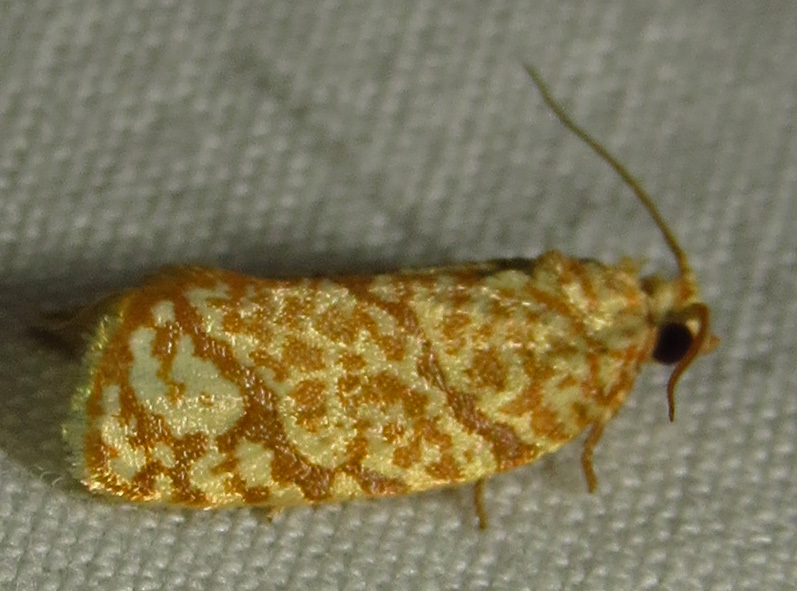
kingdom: Animalia
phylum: Arthropoda
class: Insecta
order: Lepidoptera
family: Tortricidae
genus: Argyrotaenia
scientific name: Argyrotaenia quercifoliana
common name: Yellow-winged oak leafroller moth
